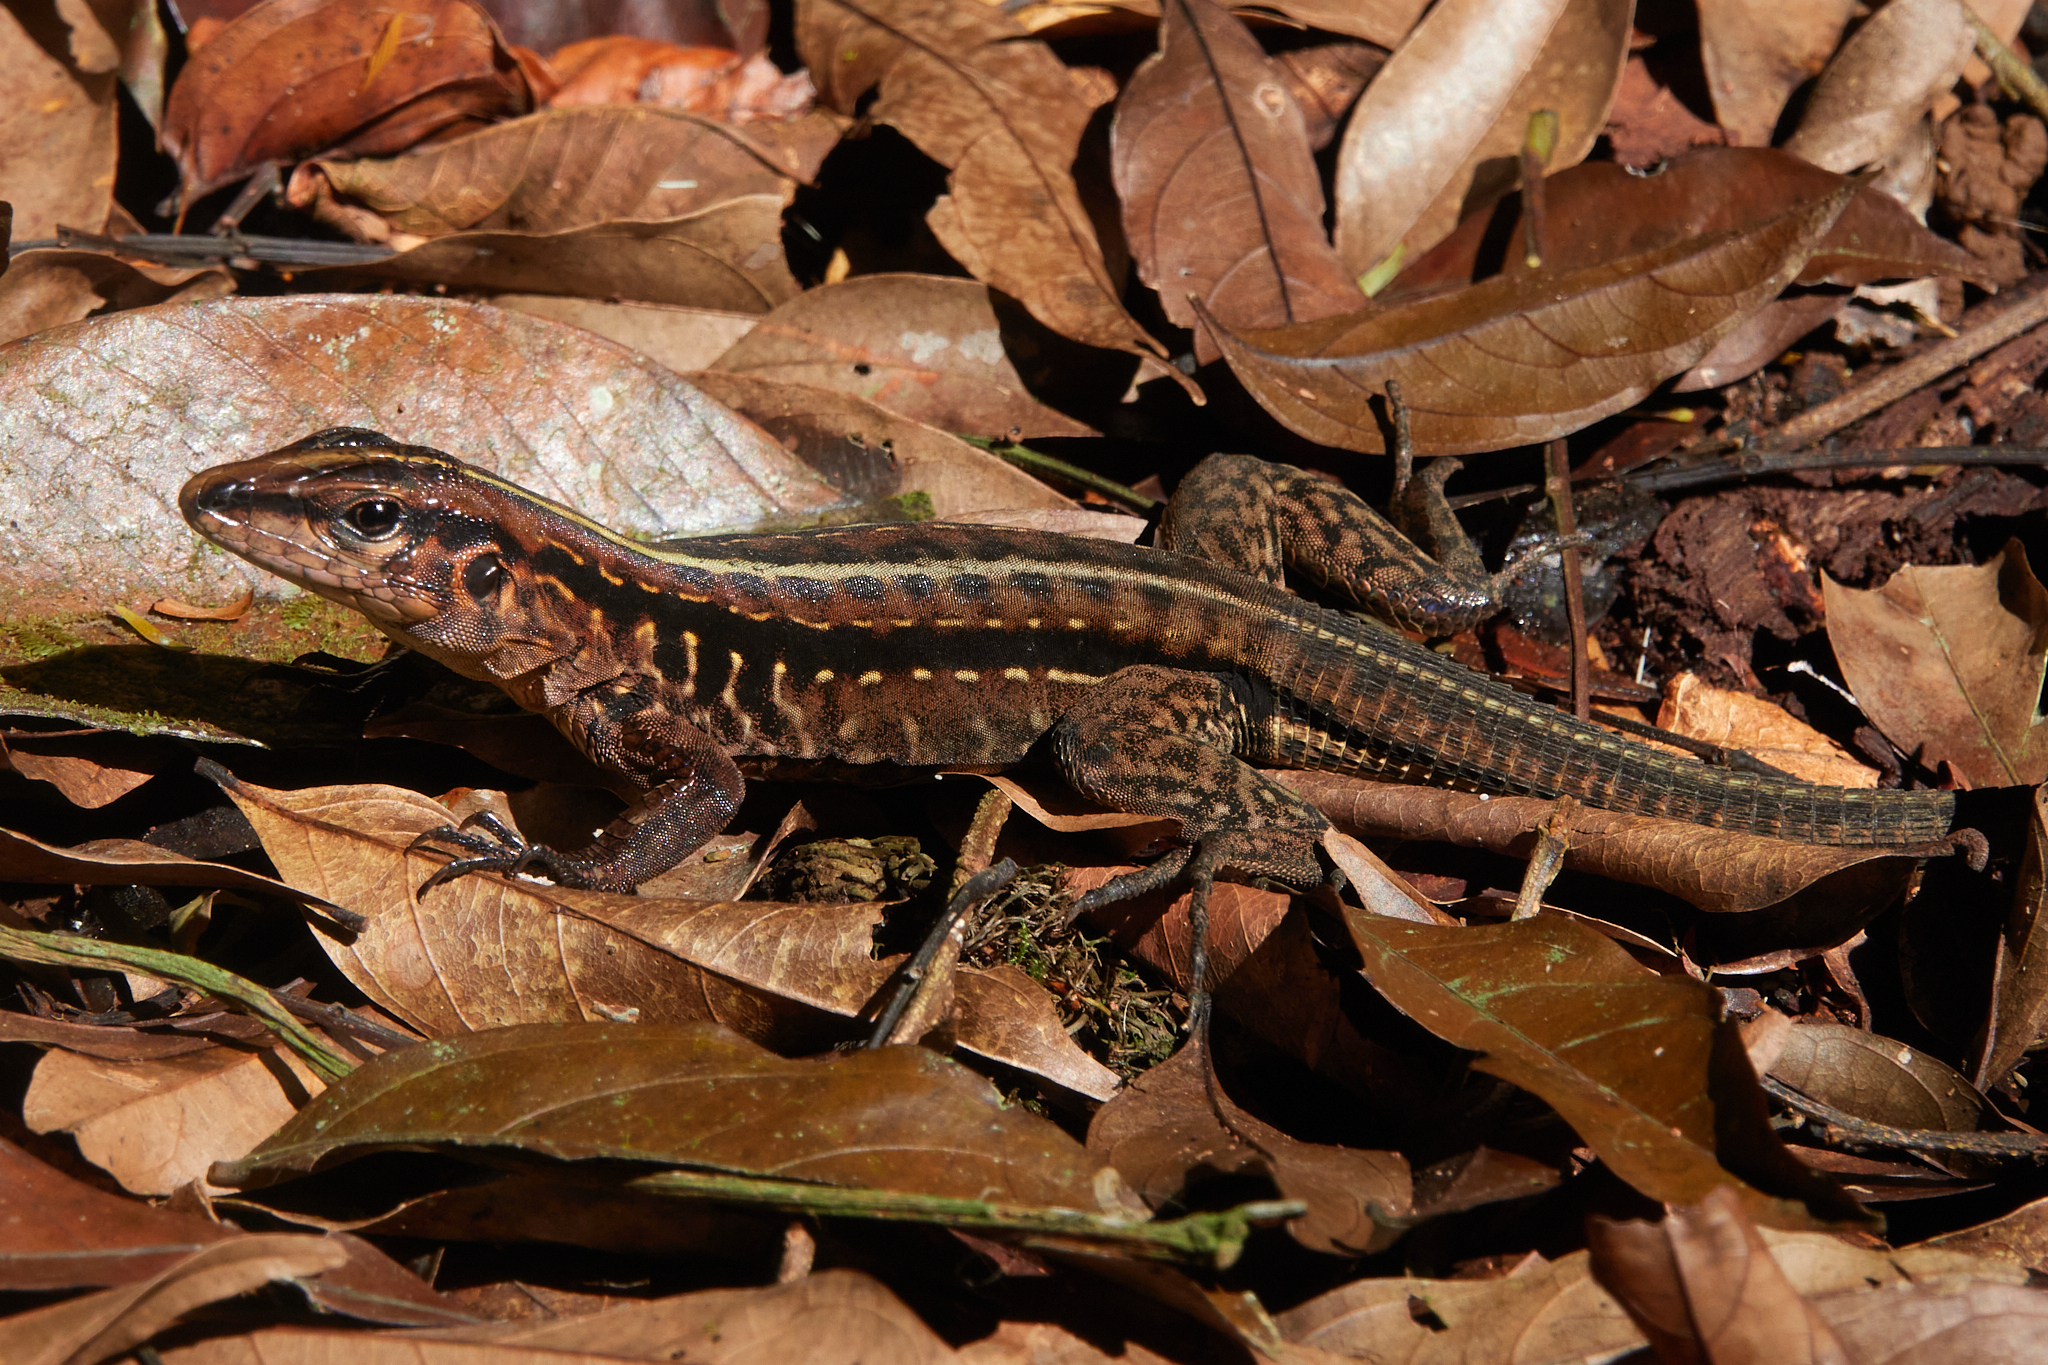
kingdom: Animalia
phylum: Chordata
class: Squamata
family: Teiidae
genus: Holcosus
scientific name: Holcosus festivus
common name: Middle american ameiva
